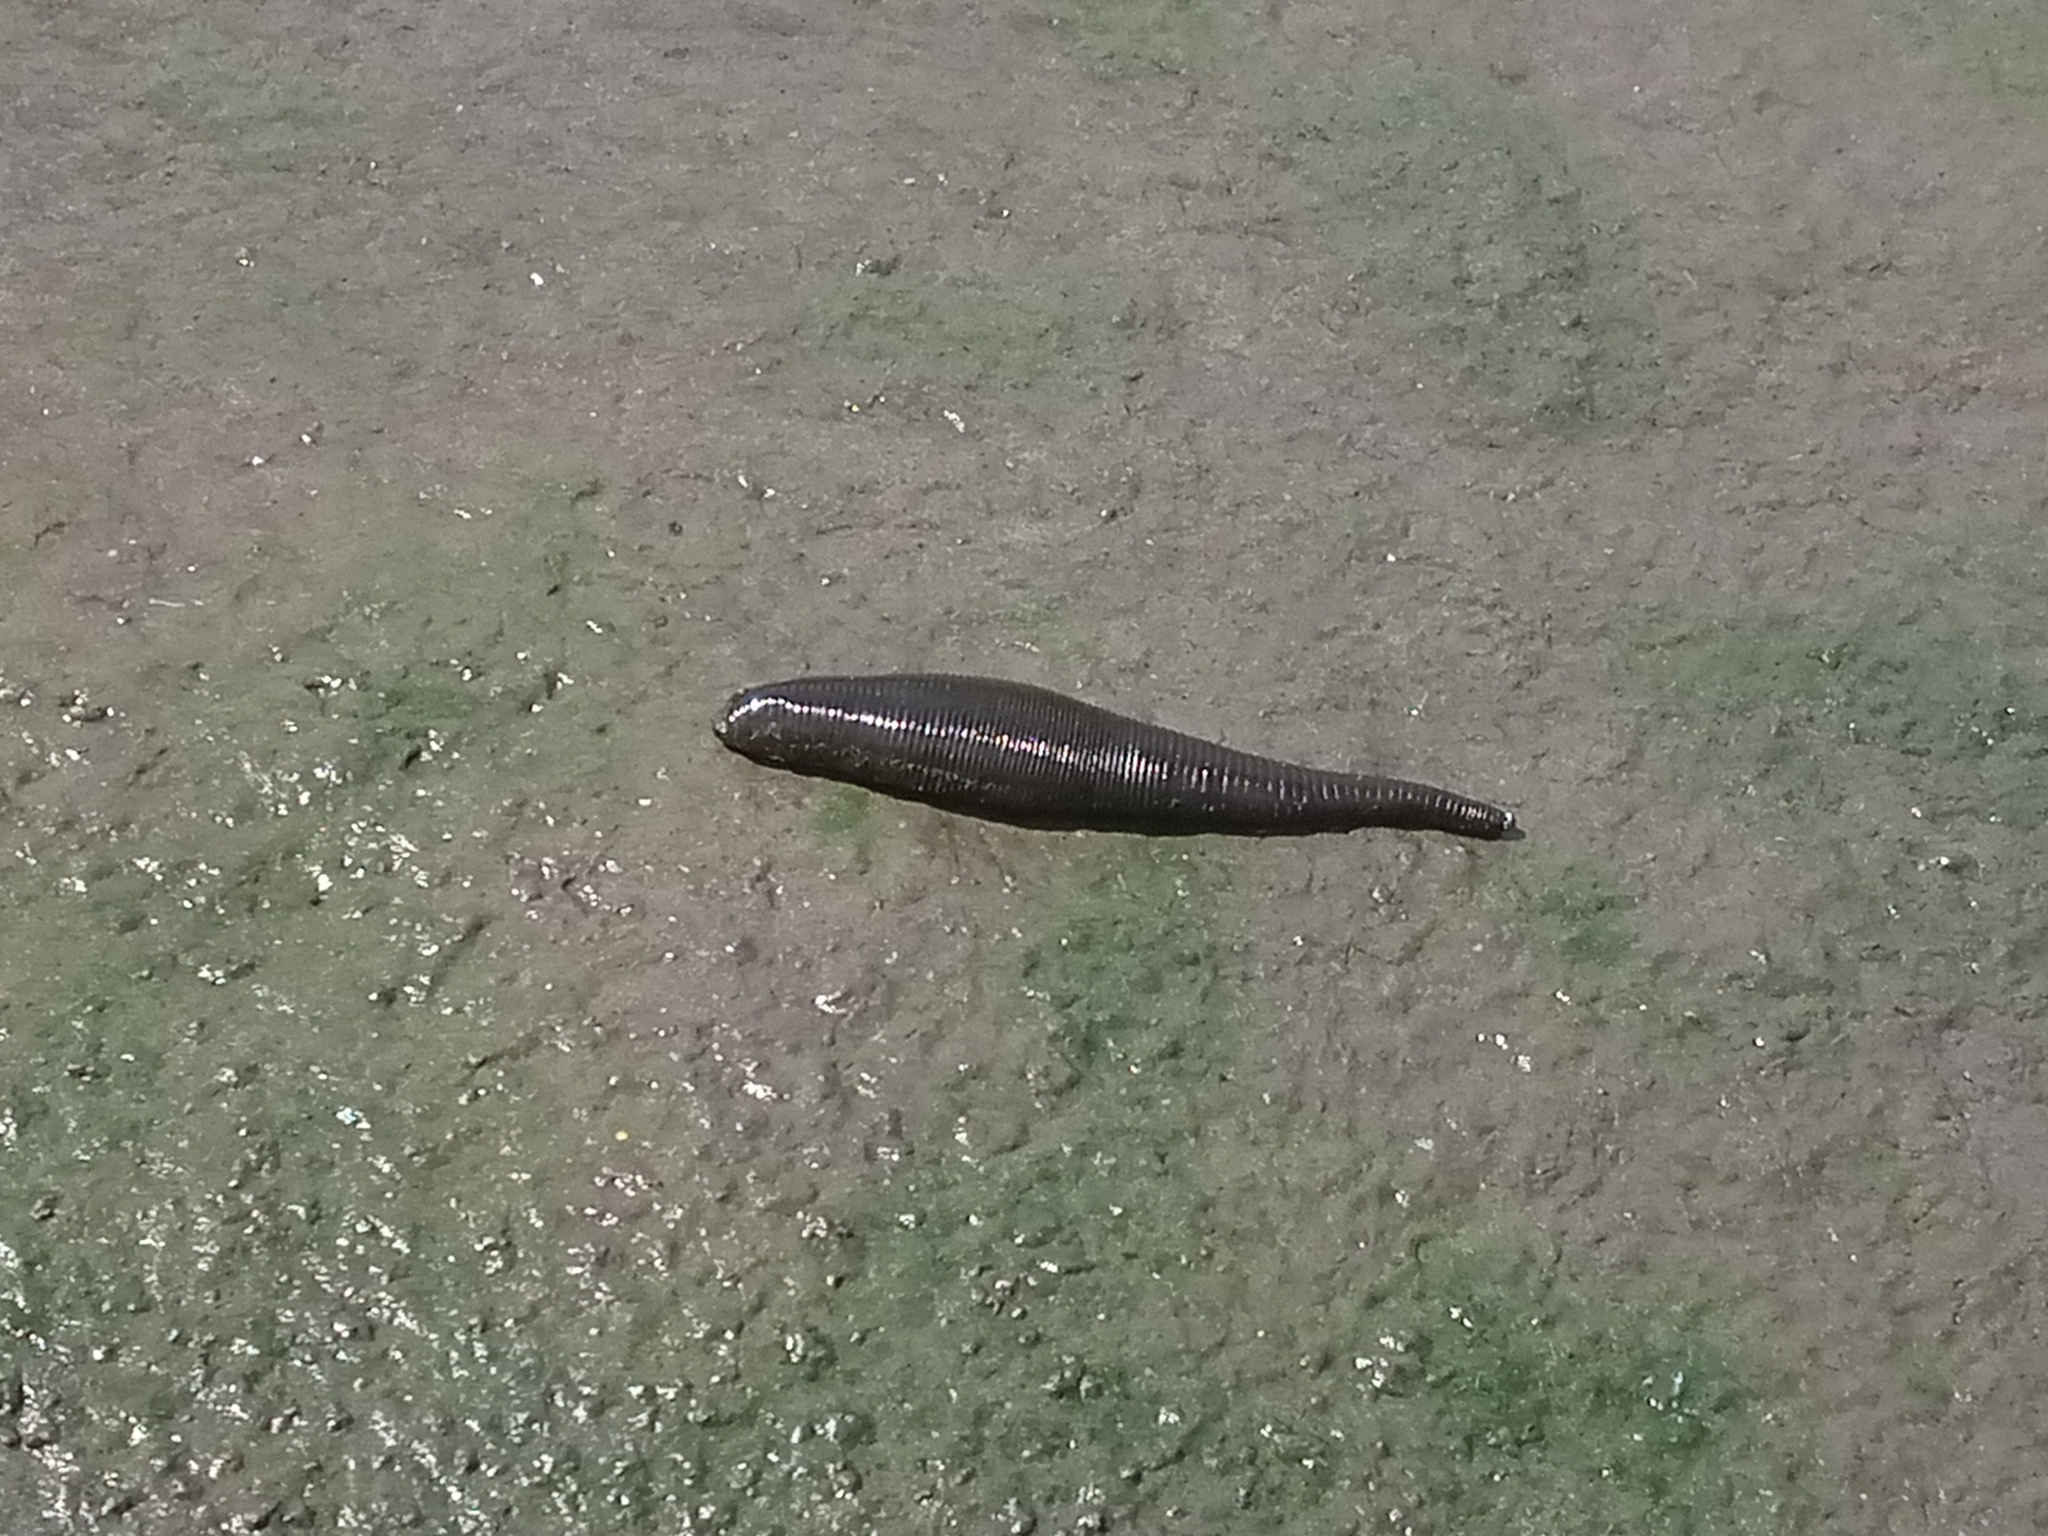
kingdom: Animalia
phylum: Annelida
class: Clitellata
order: Arhynchobdellida
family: Haemopidae
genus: Haemopis
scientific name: Haemopis sanguisuga
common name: Horse leech
